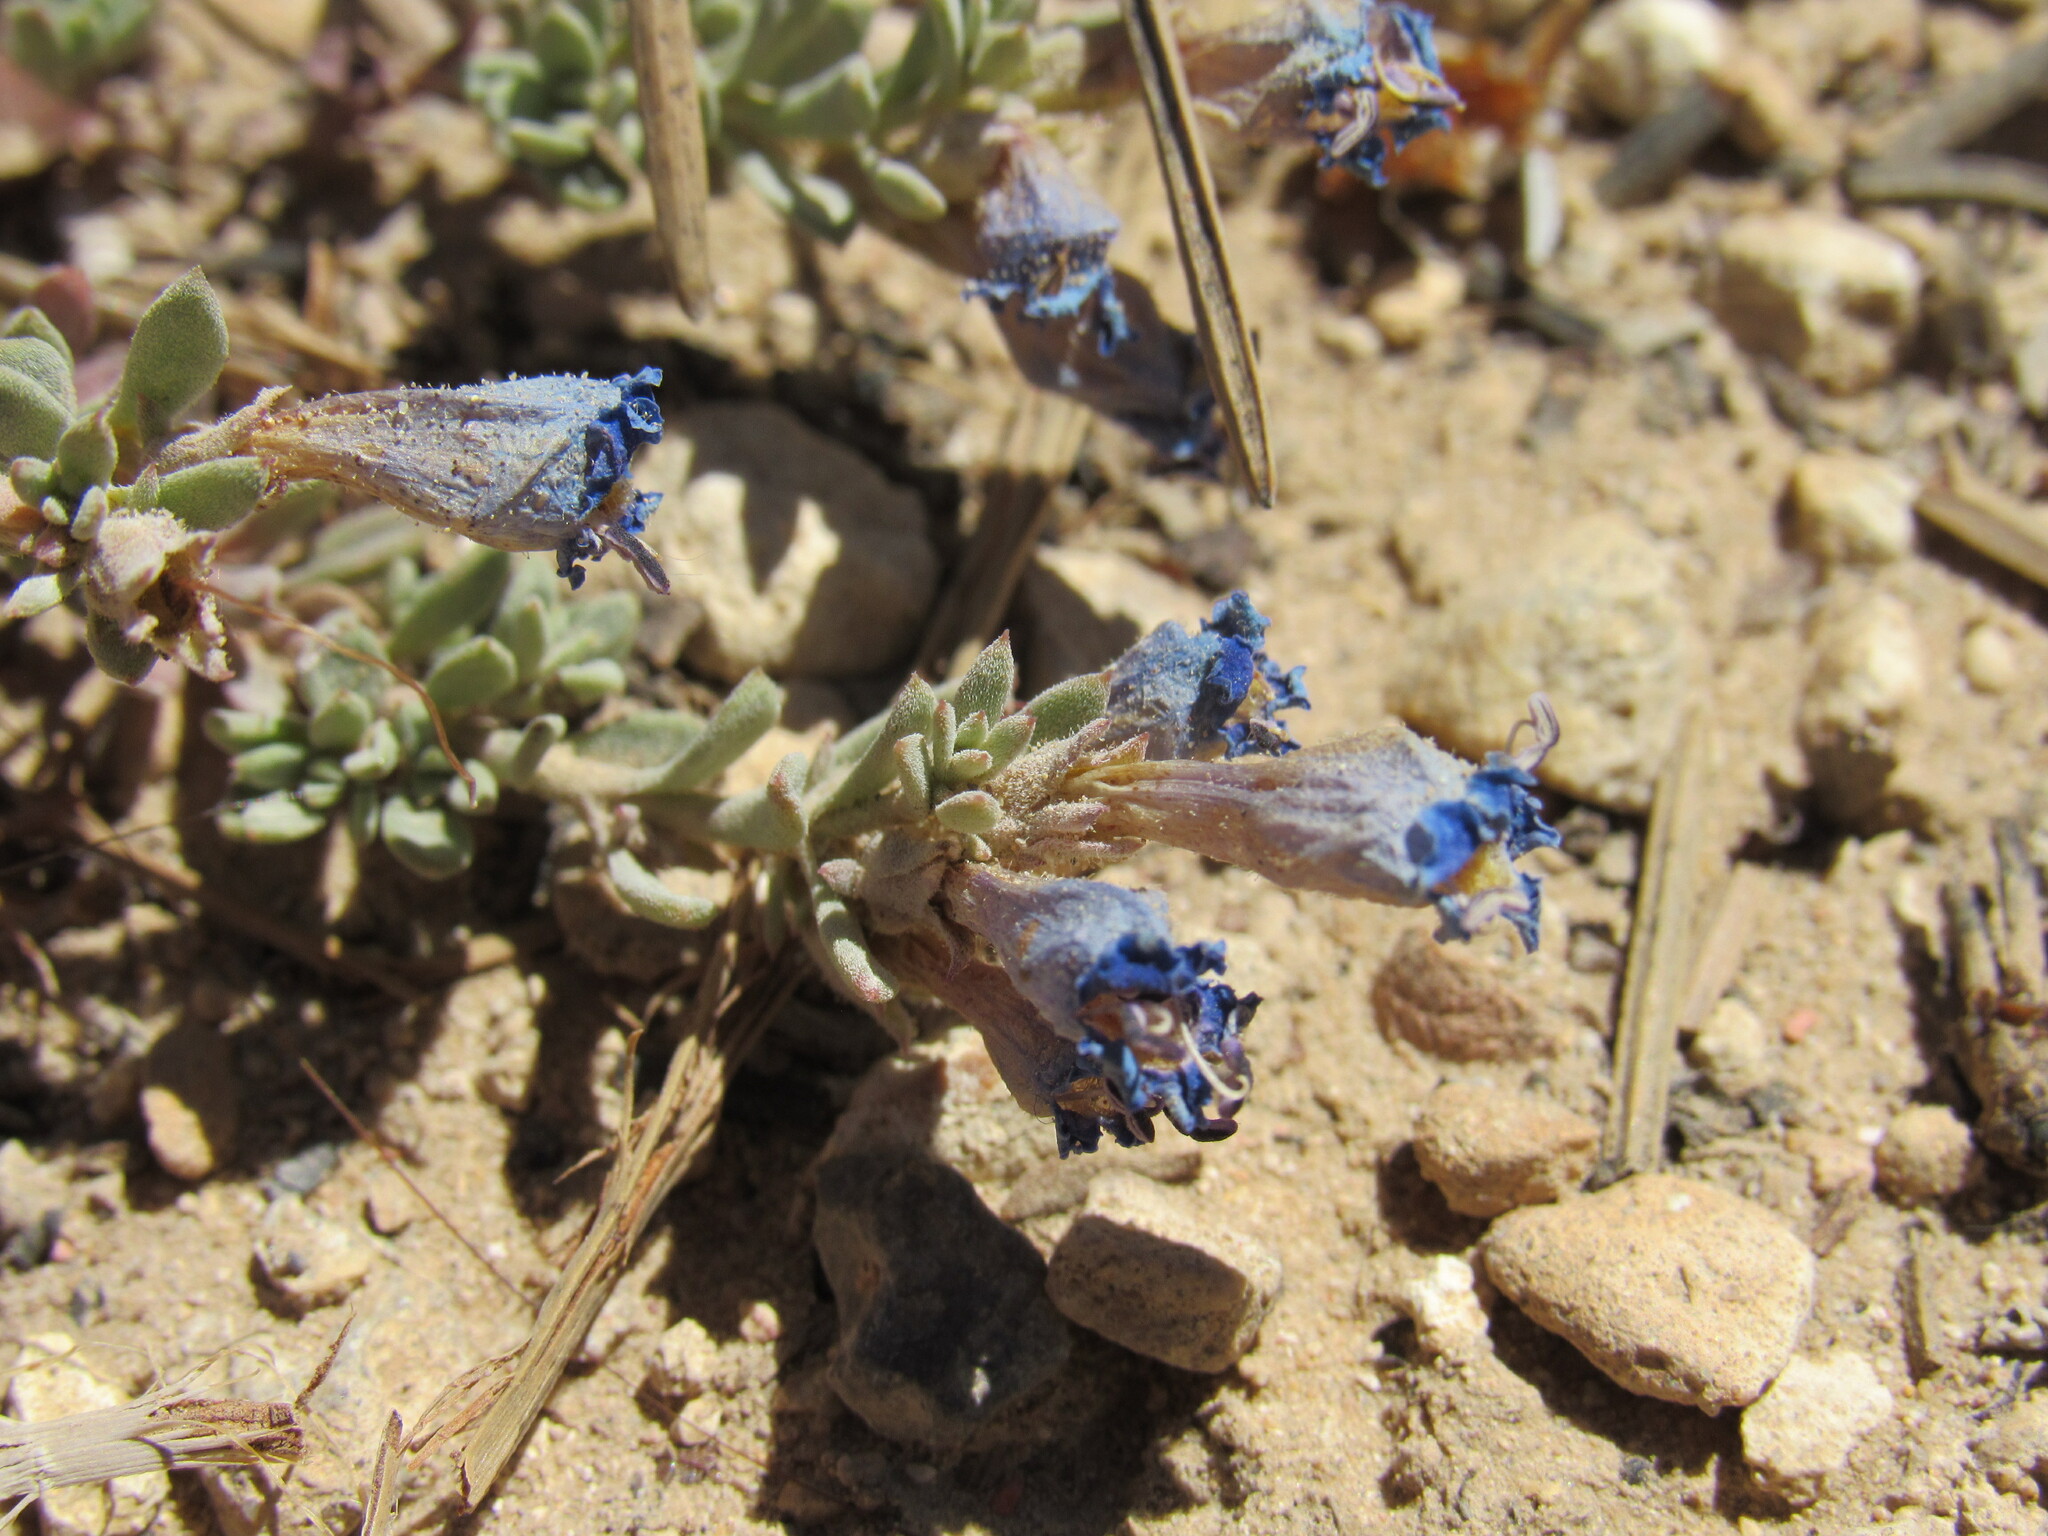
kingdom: Plantae
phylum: Tracheophyta
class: Magnoliopsida
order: Lamiales
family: Plantaginaceae
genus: Penstemon
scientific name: Penstemon caespitosus
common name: Mat penstemon
